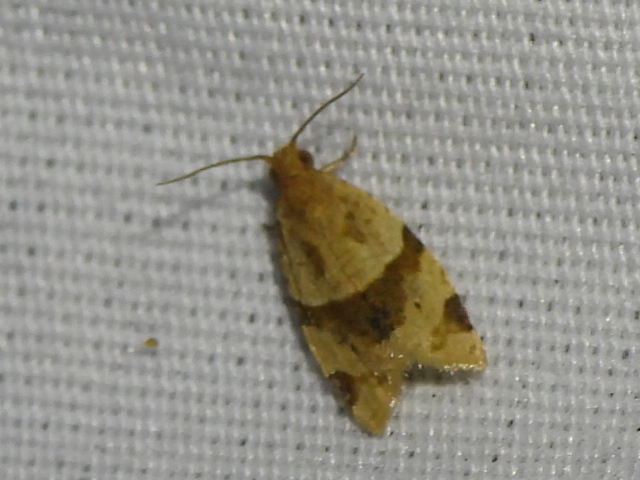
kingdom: Animalia
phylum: Arthropoda
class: Insecta
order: Lepidoptera
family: Tortricidae
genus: Clepsis
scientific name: Clepsis peritana
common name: Garden tortrix
